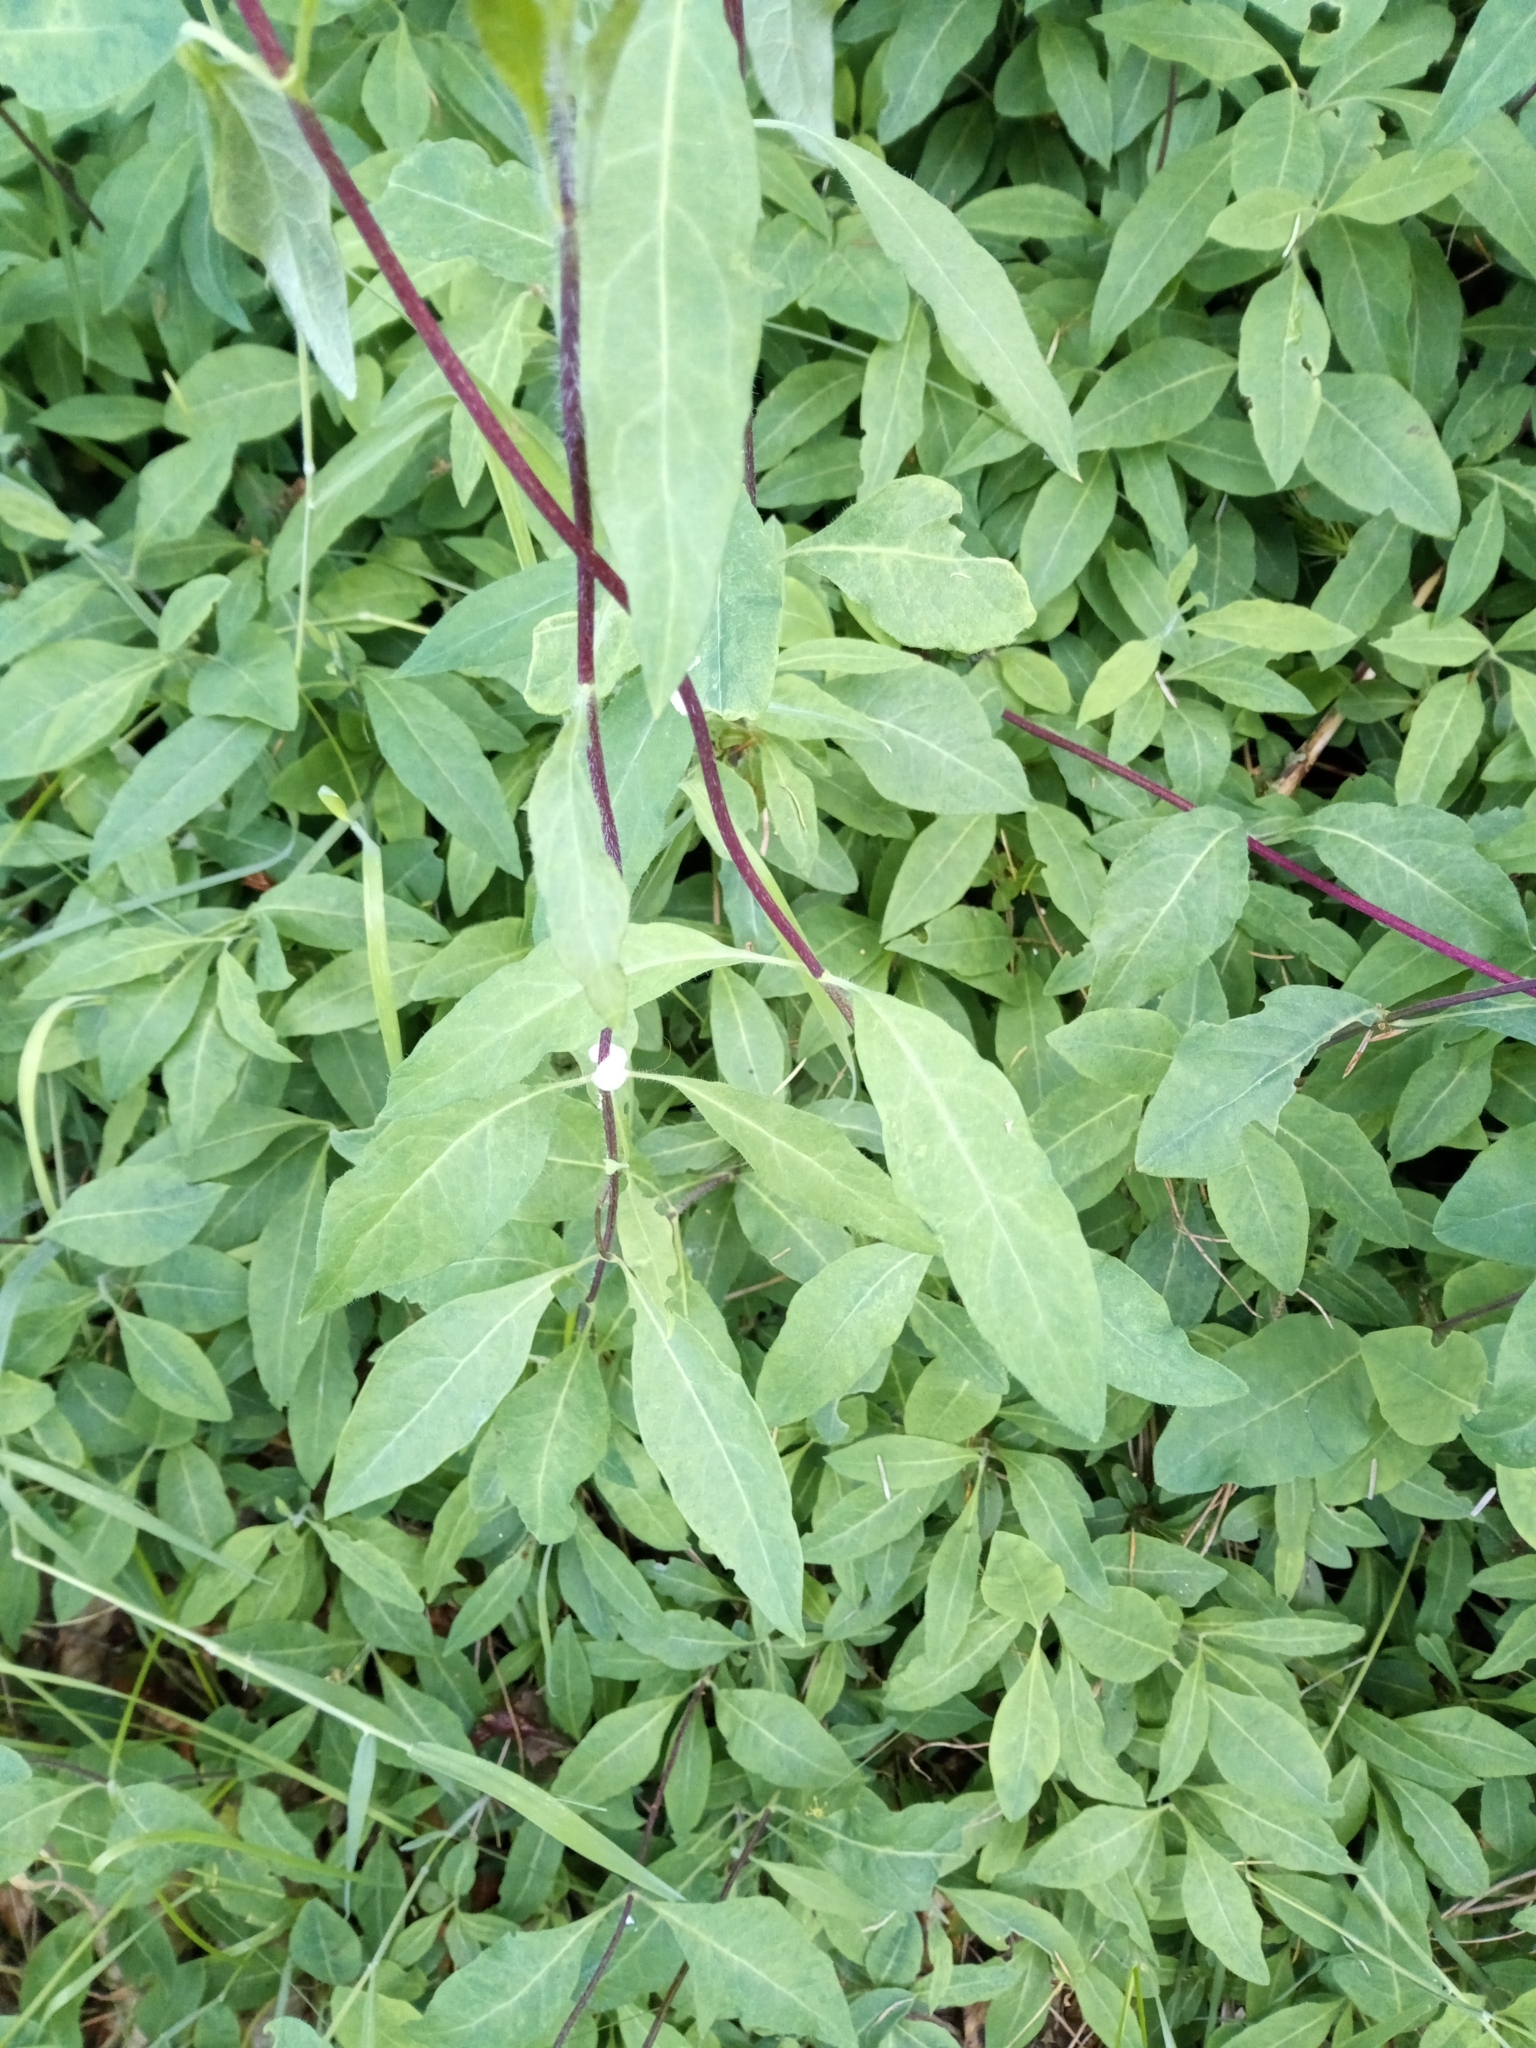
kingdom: Plantae
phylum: Tracheophyta
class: Magnoliopsida
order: Dipsacales
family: Caprifoliaceae
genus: Lonicera
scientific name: Lonicera periclymenum
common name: European honeysuckle
